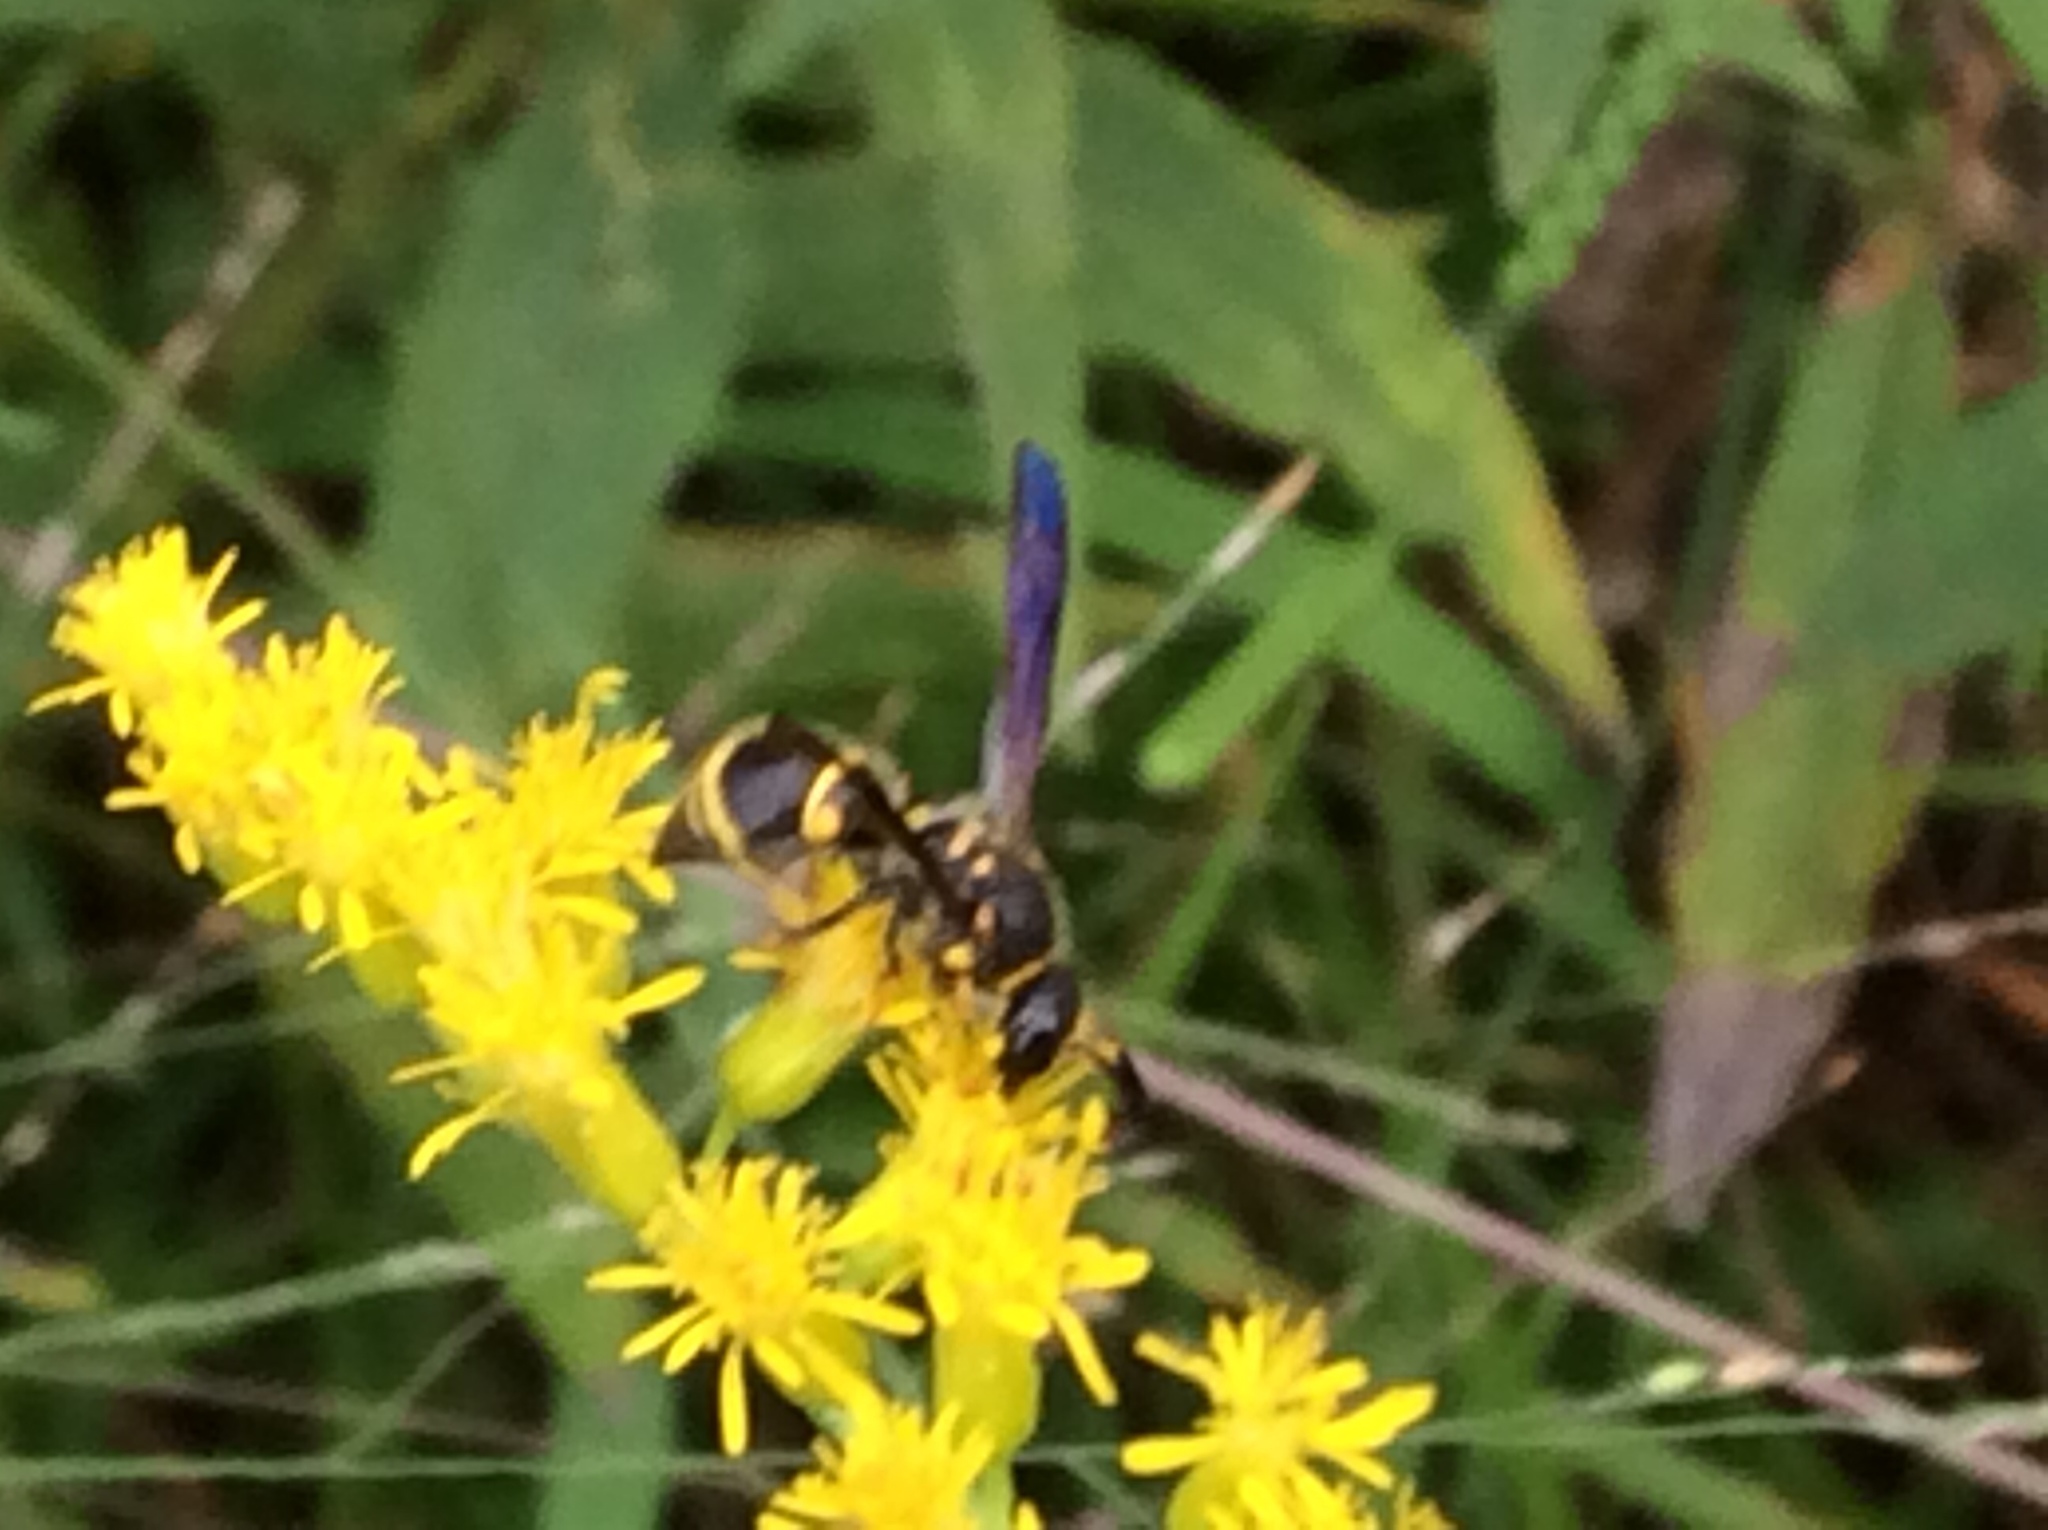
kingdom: Animalia
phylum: Arthropoda
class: Insecta
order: Hymenoptera
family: Vespidae
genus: Ancistrocerus
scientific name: Ancistrocerus campestris
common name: Smiling mason wasp
